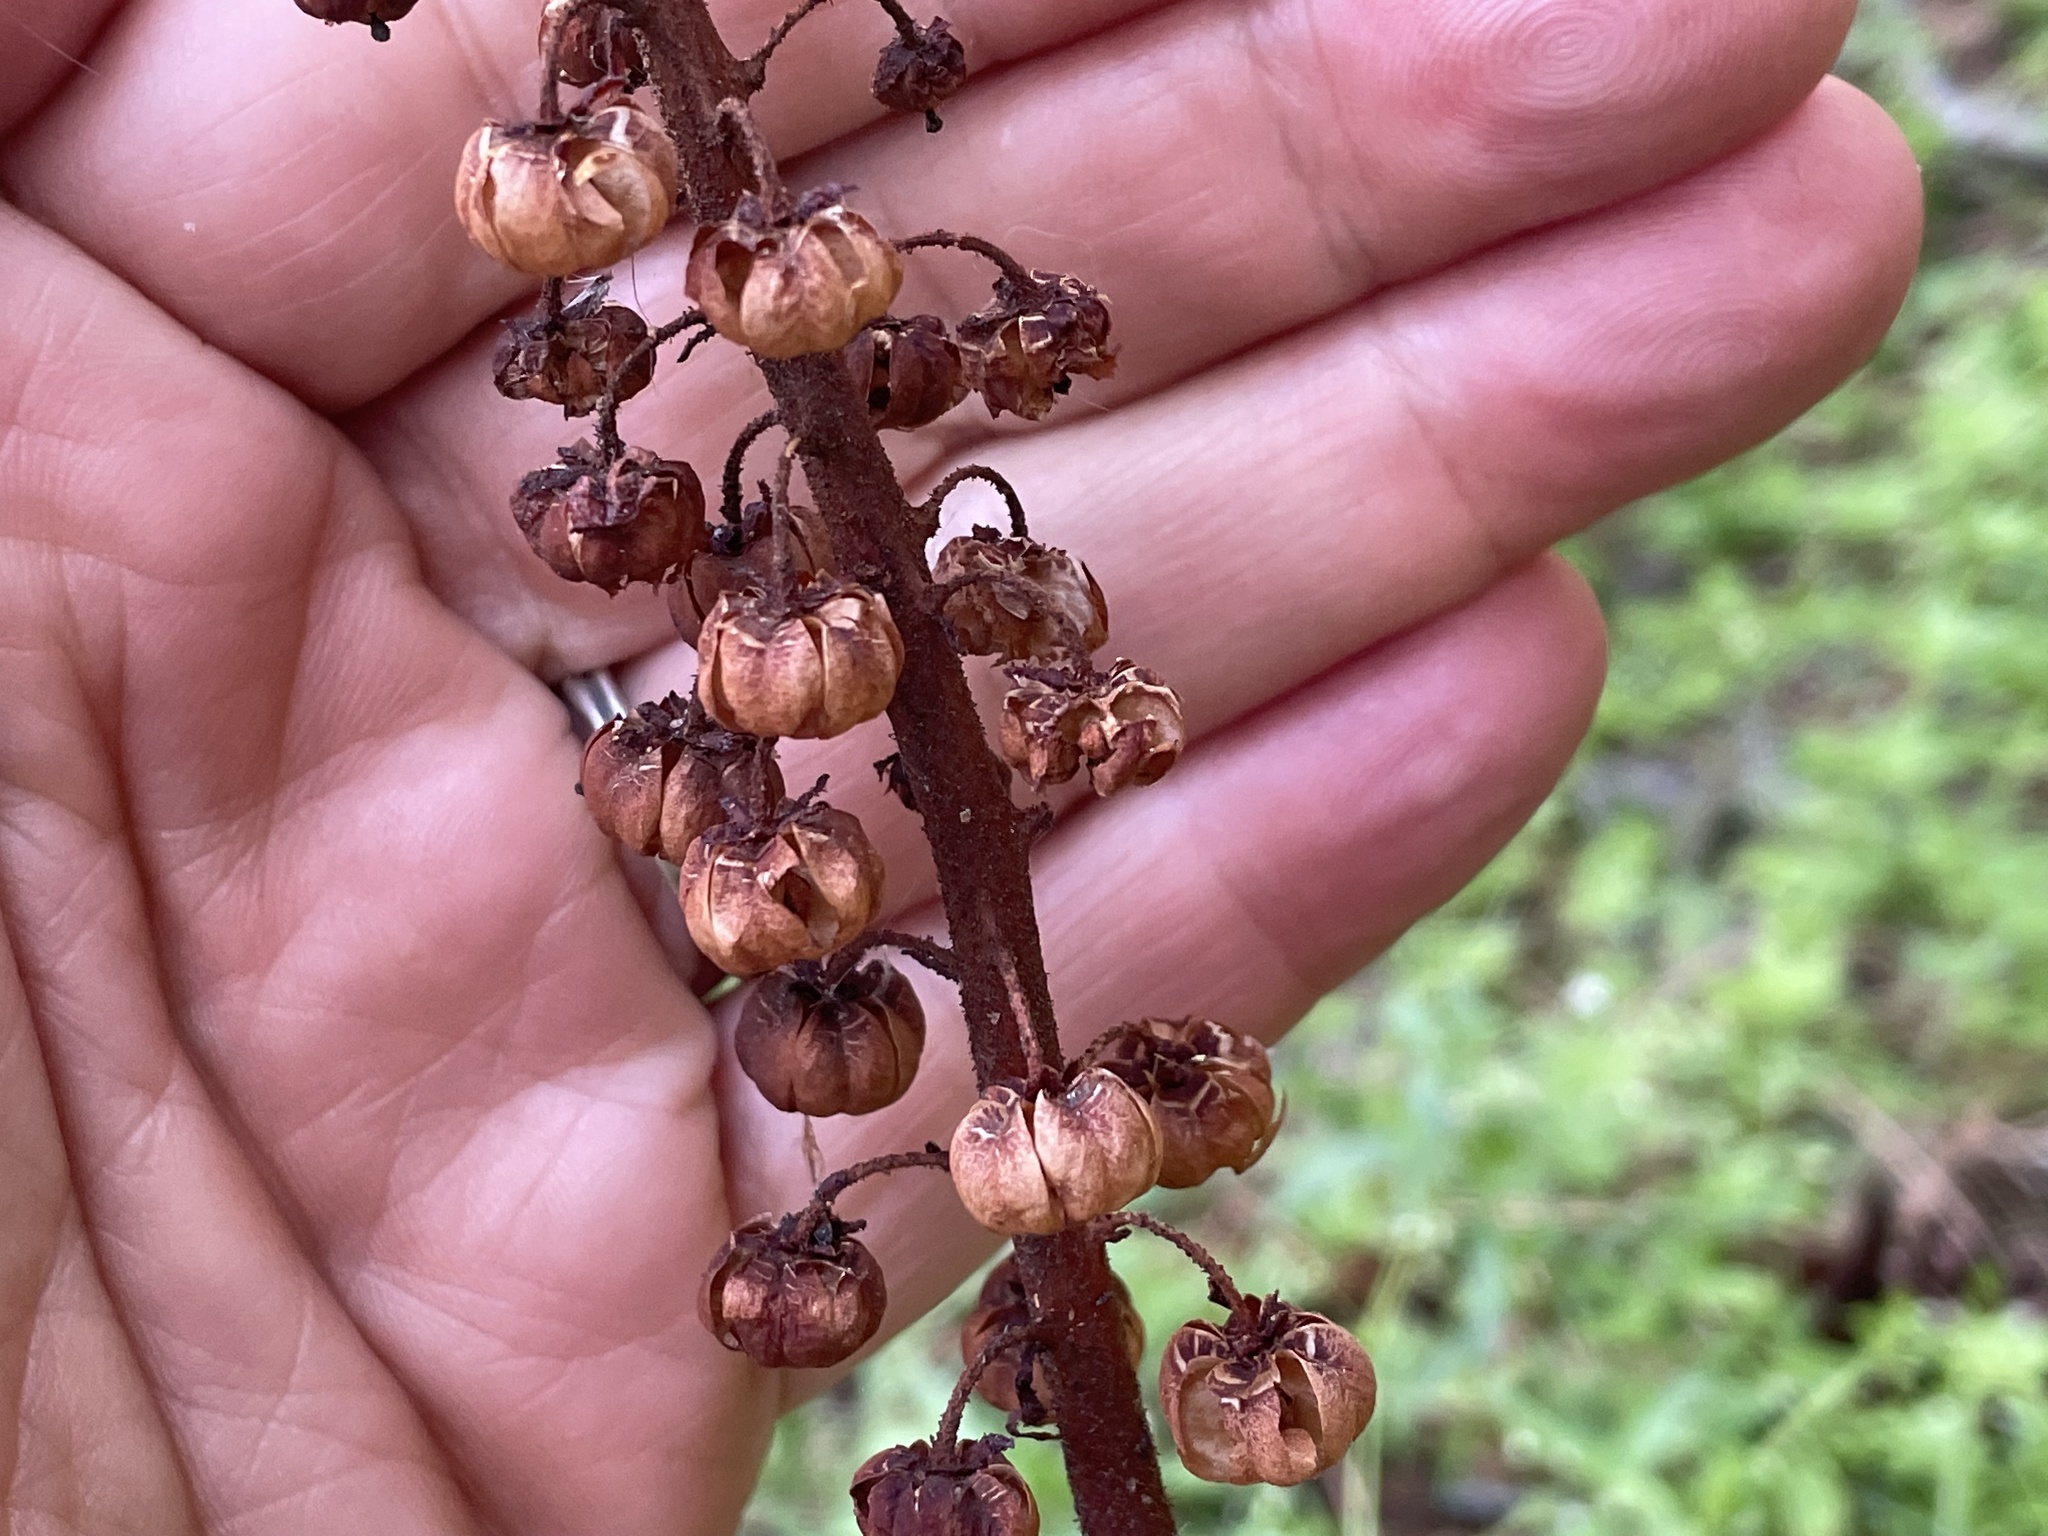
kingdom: Plantae
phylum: Tracheophyta
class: Magnoliopsida
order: Ericales
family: Ericaceae
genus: Pterospora
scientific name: Pterospora andromedea
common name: Giant bird's-nest
